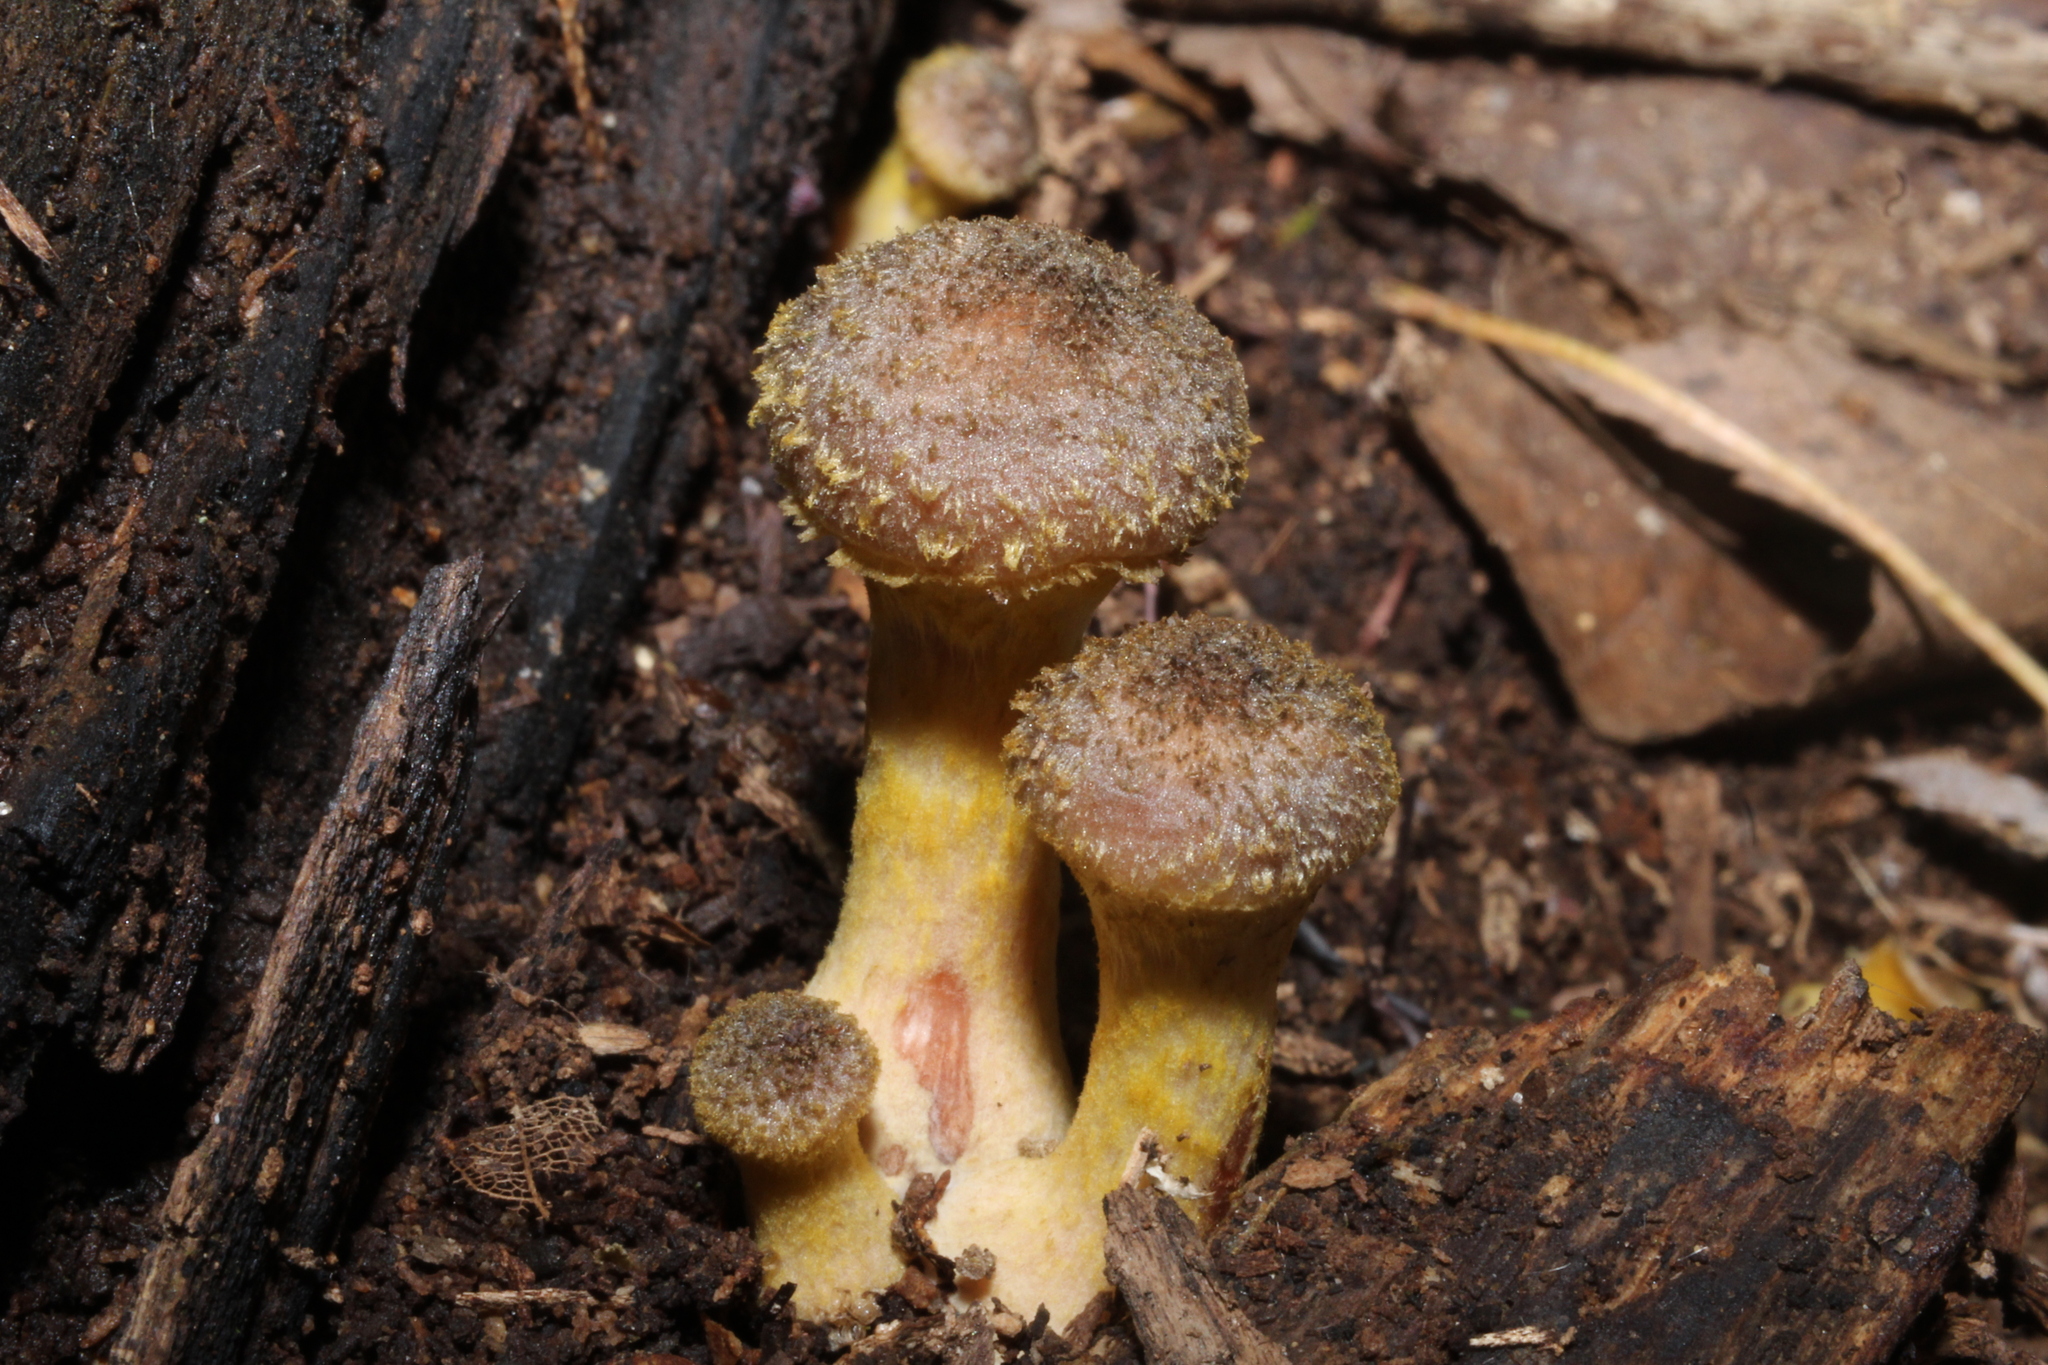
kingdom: Fungi
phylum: Basidiomycota
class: Agaricomycetes
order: Agaricales
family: Physalacriaceae
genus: Armillaria
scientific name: Armillaria gallica
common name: Bulbous honey fungus
